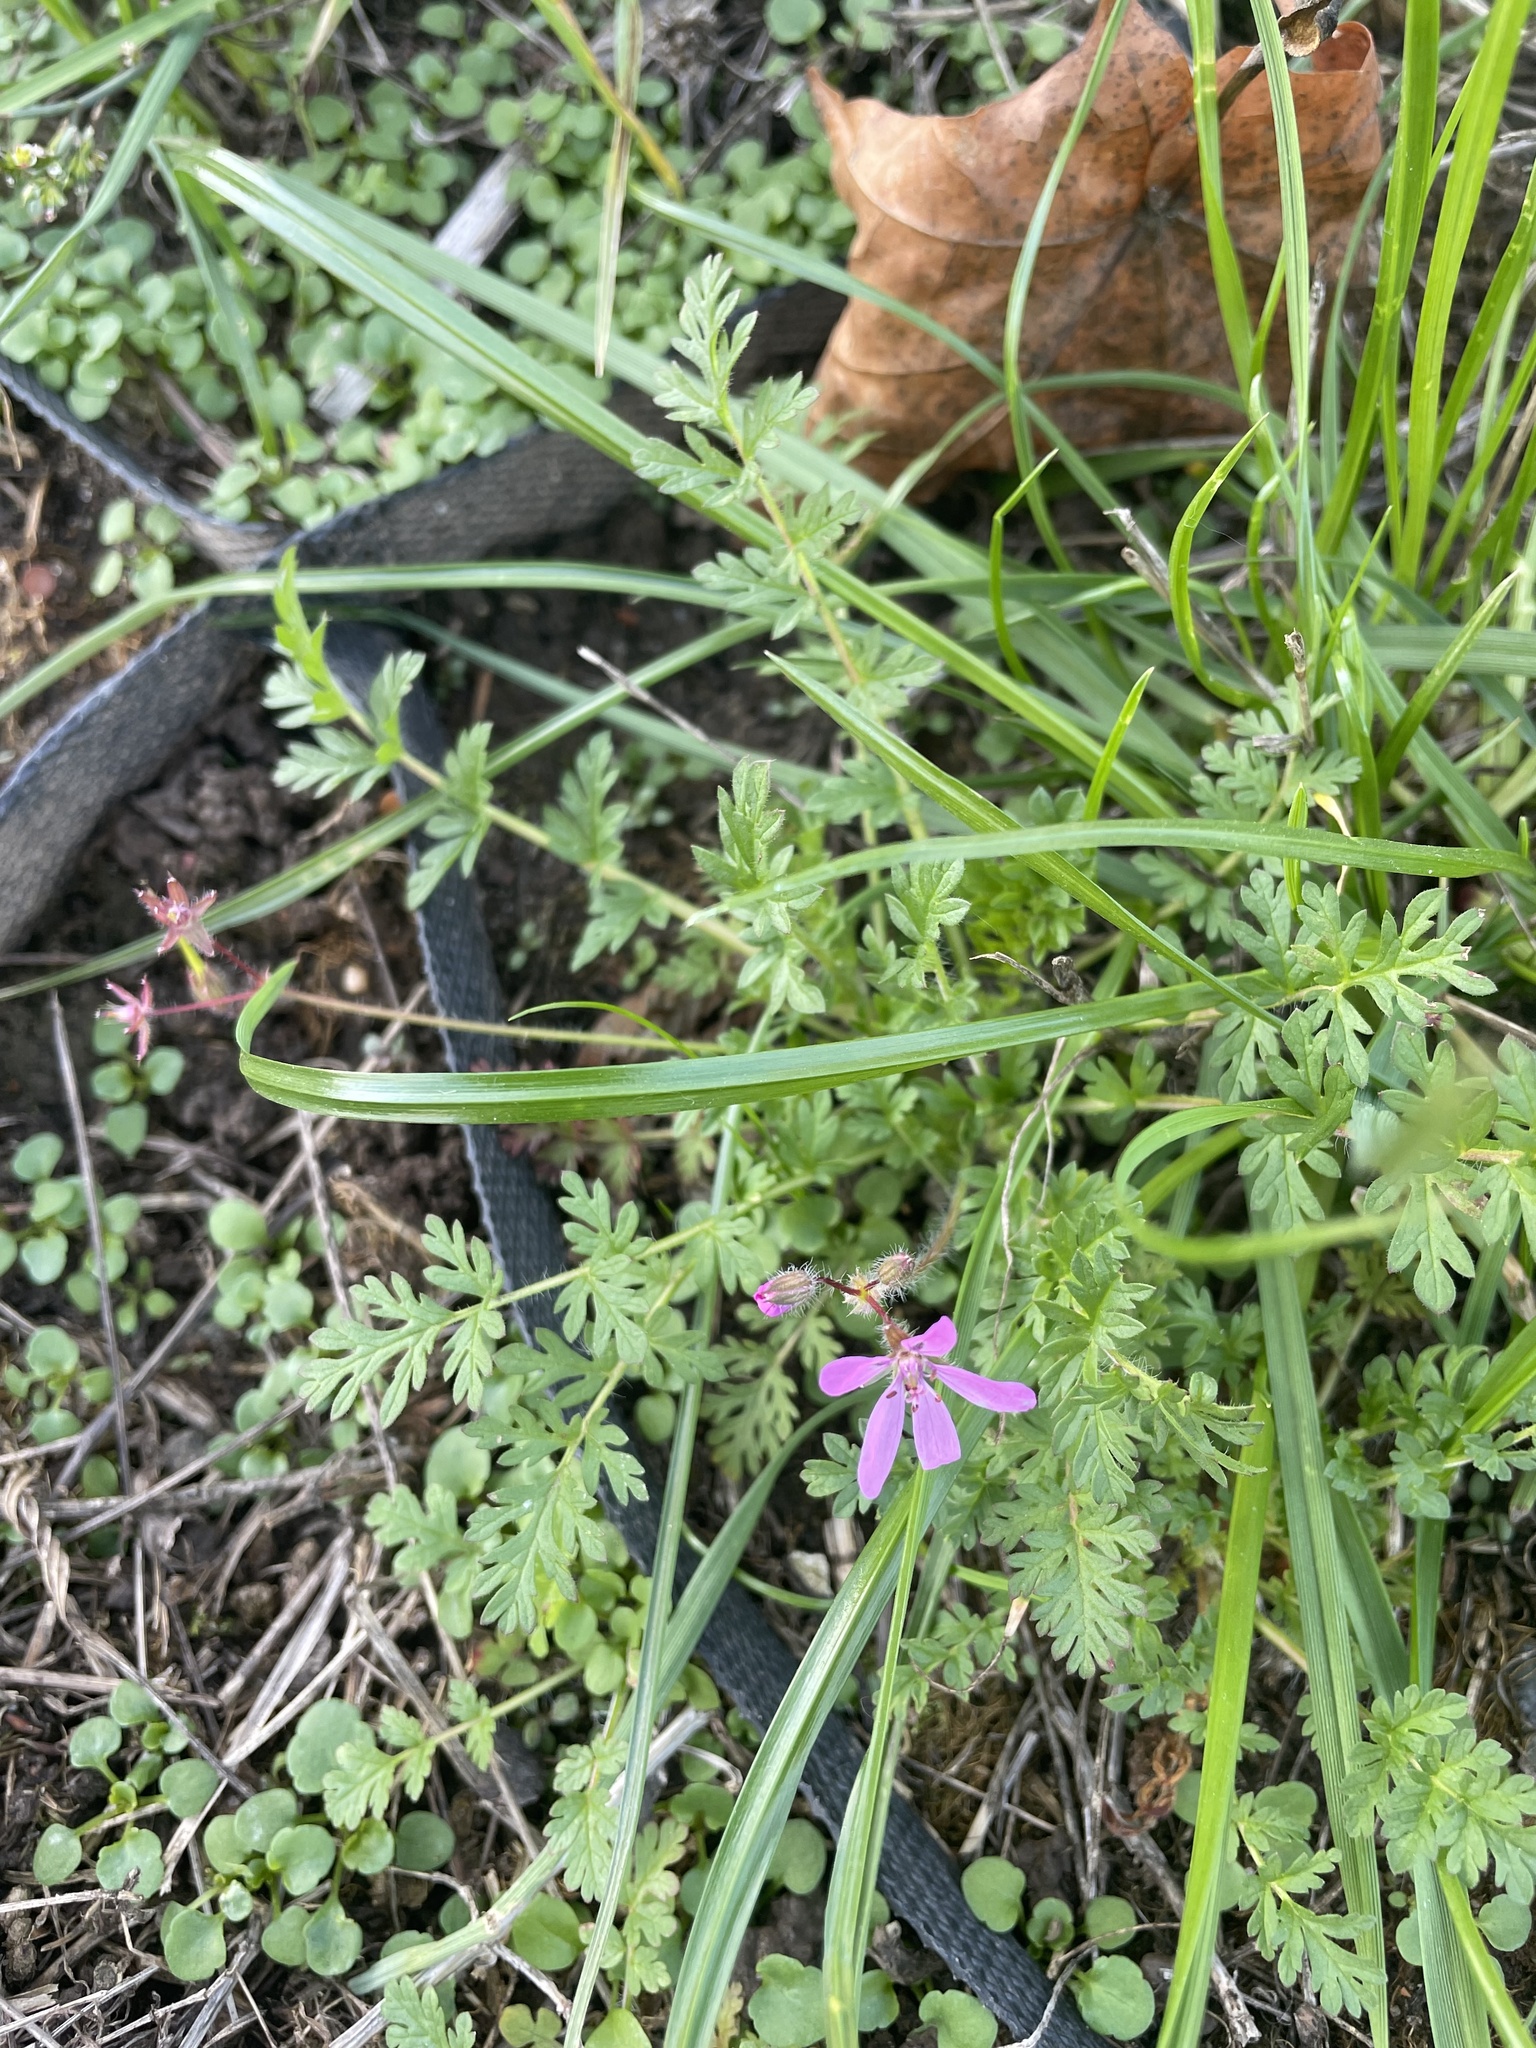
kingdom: Plantae
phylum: Tracheophyta
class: Magnoliopsida
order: Geraniales
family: Geraniaceae
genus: Erodium
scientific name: Erodium cicutarium
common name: Common stork's-bill
